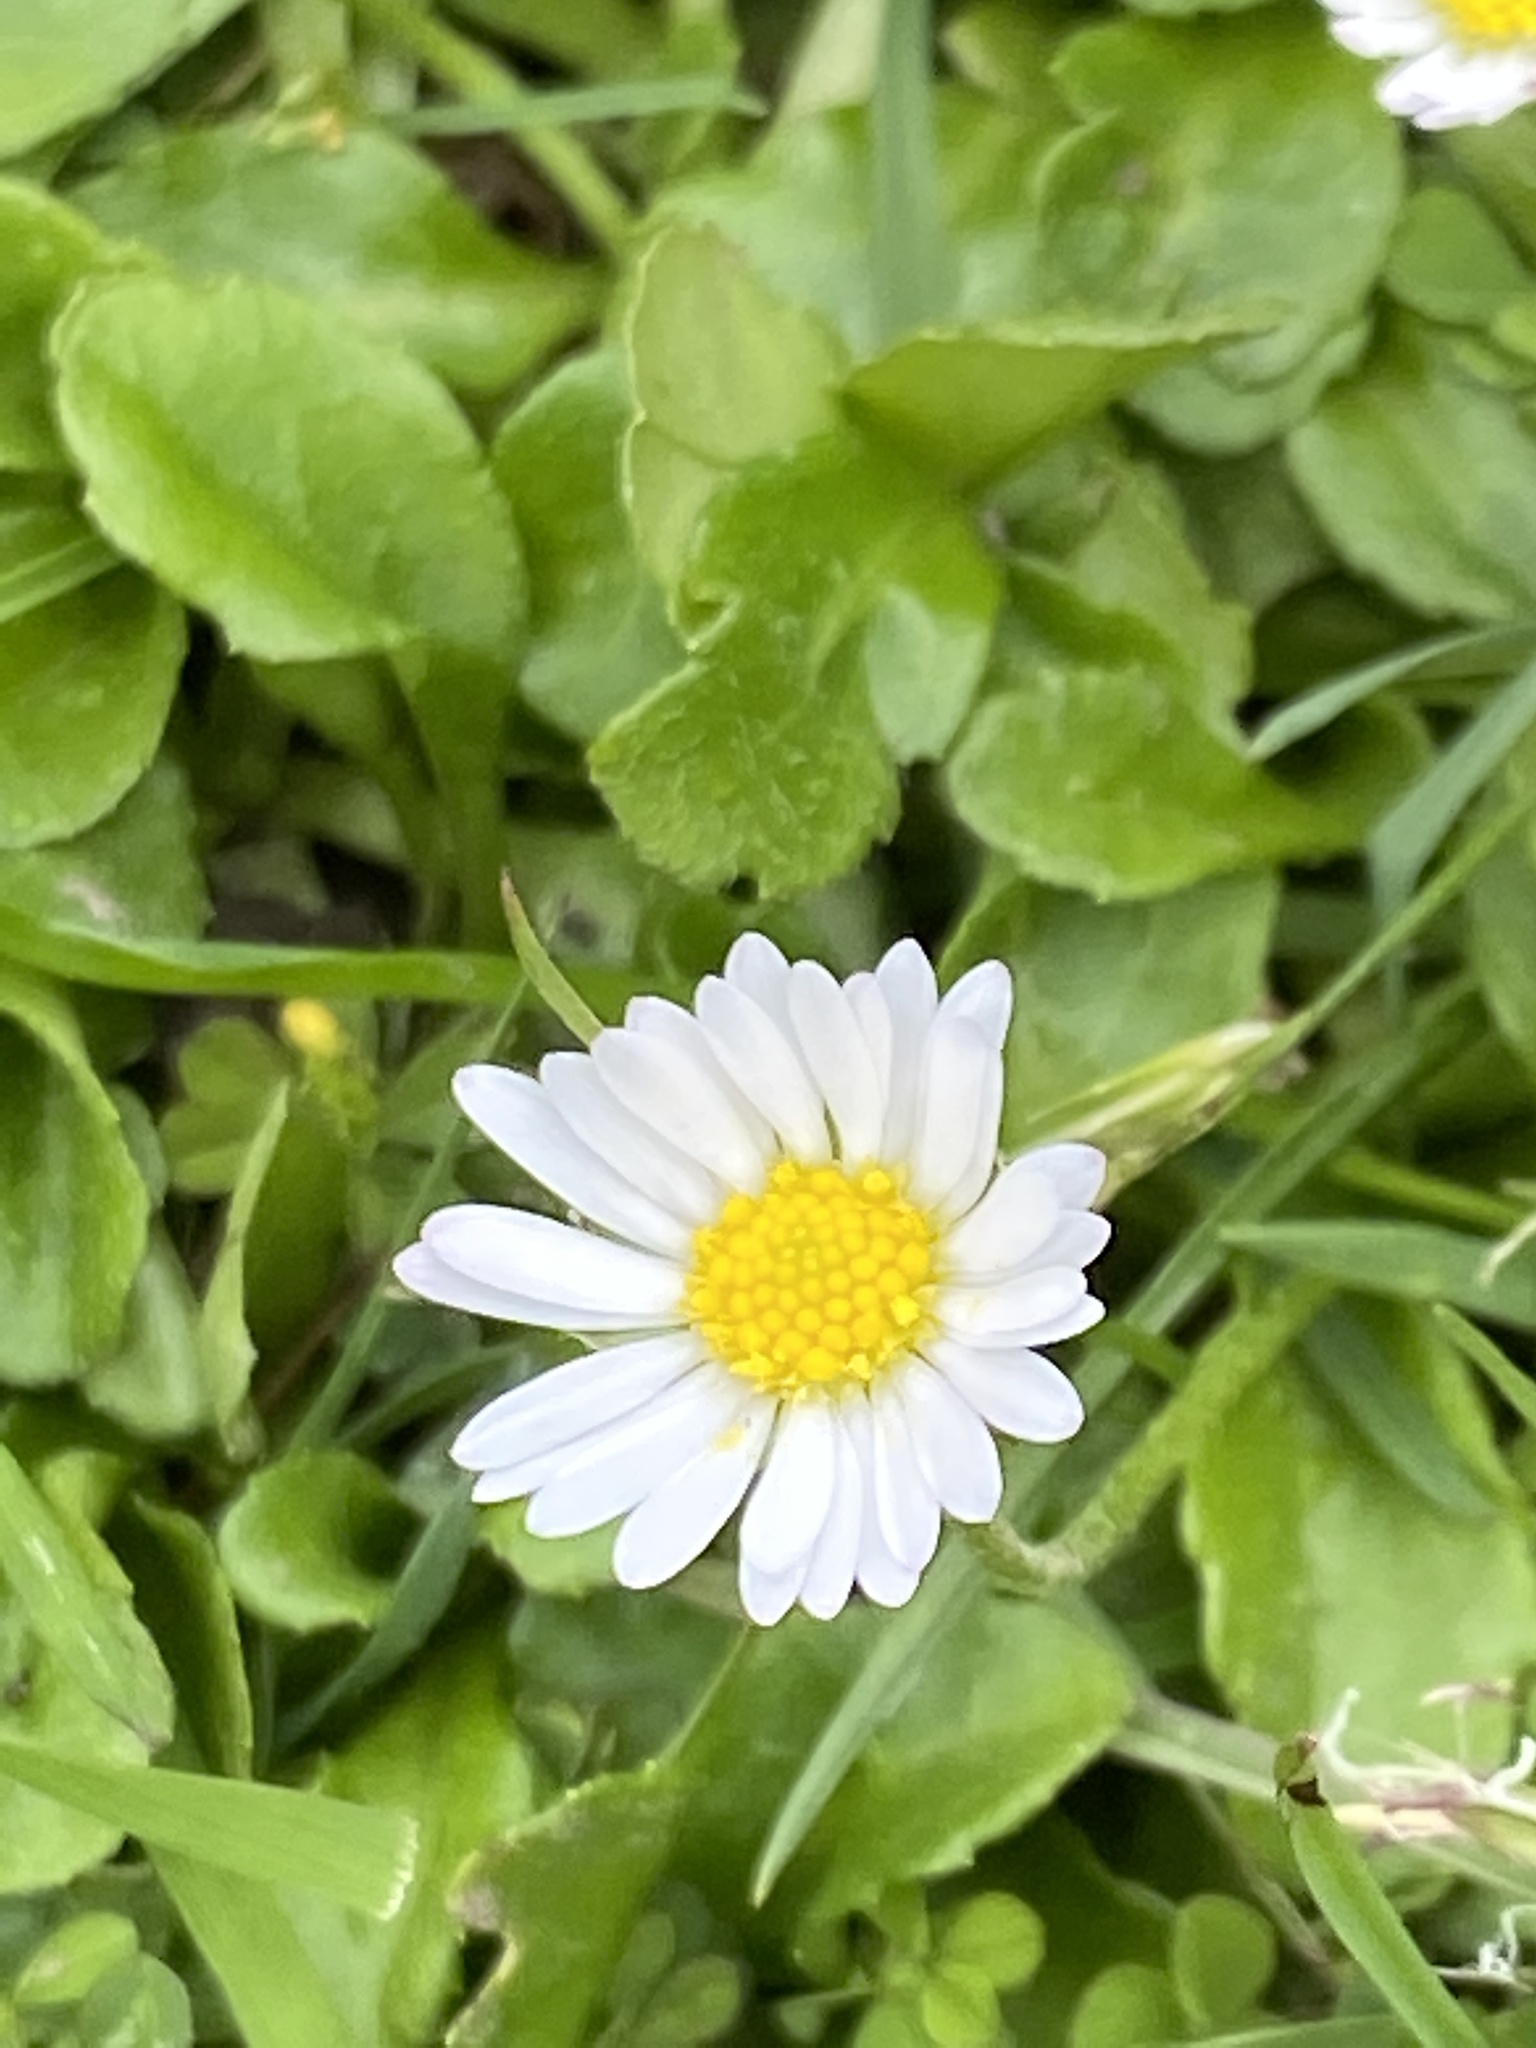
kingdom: Plantae
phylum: Tracheophyta
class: Magnoliopsida
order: Asterales
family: Asteraceae
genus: Bellis
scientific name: Bellis perennis
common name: Lawndaisy
